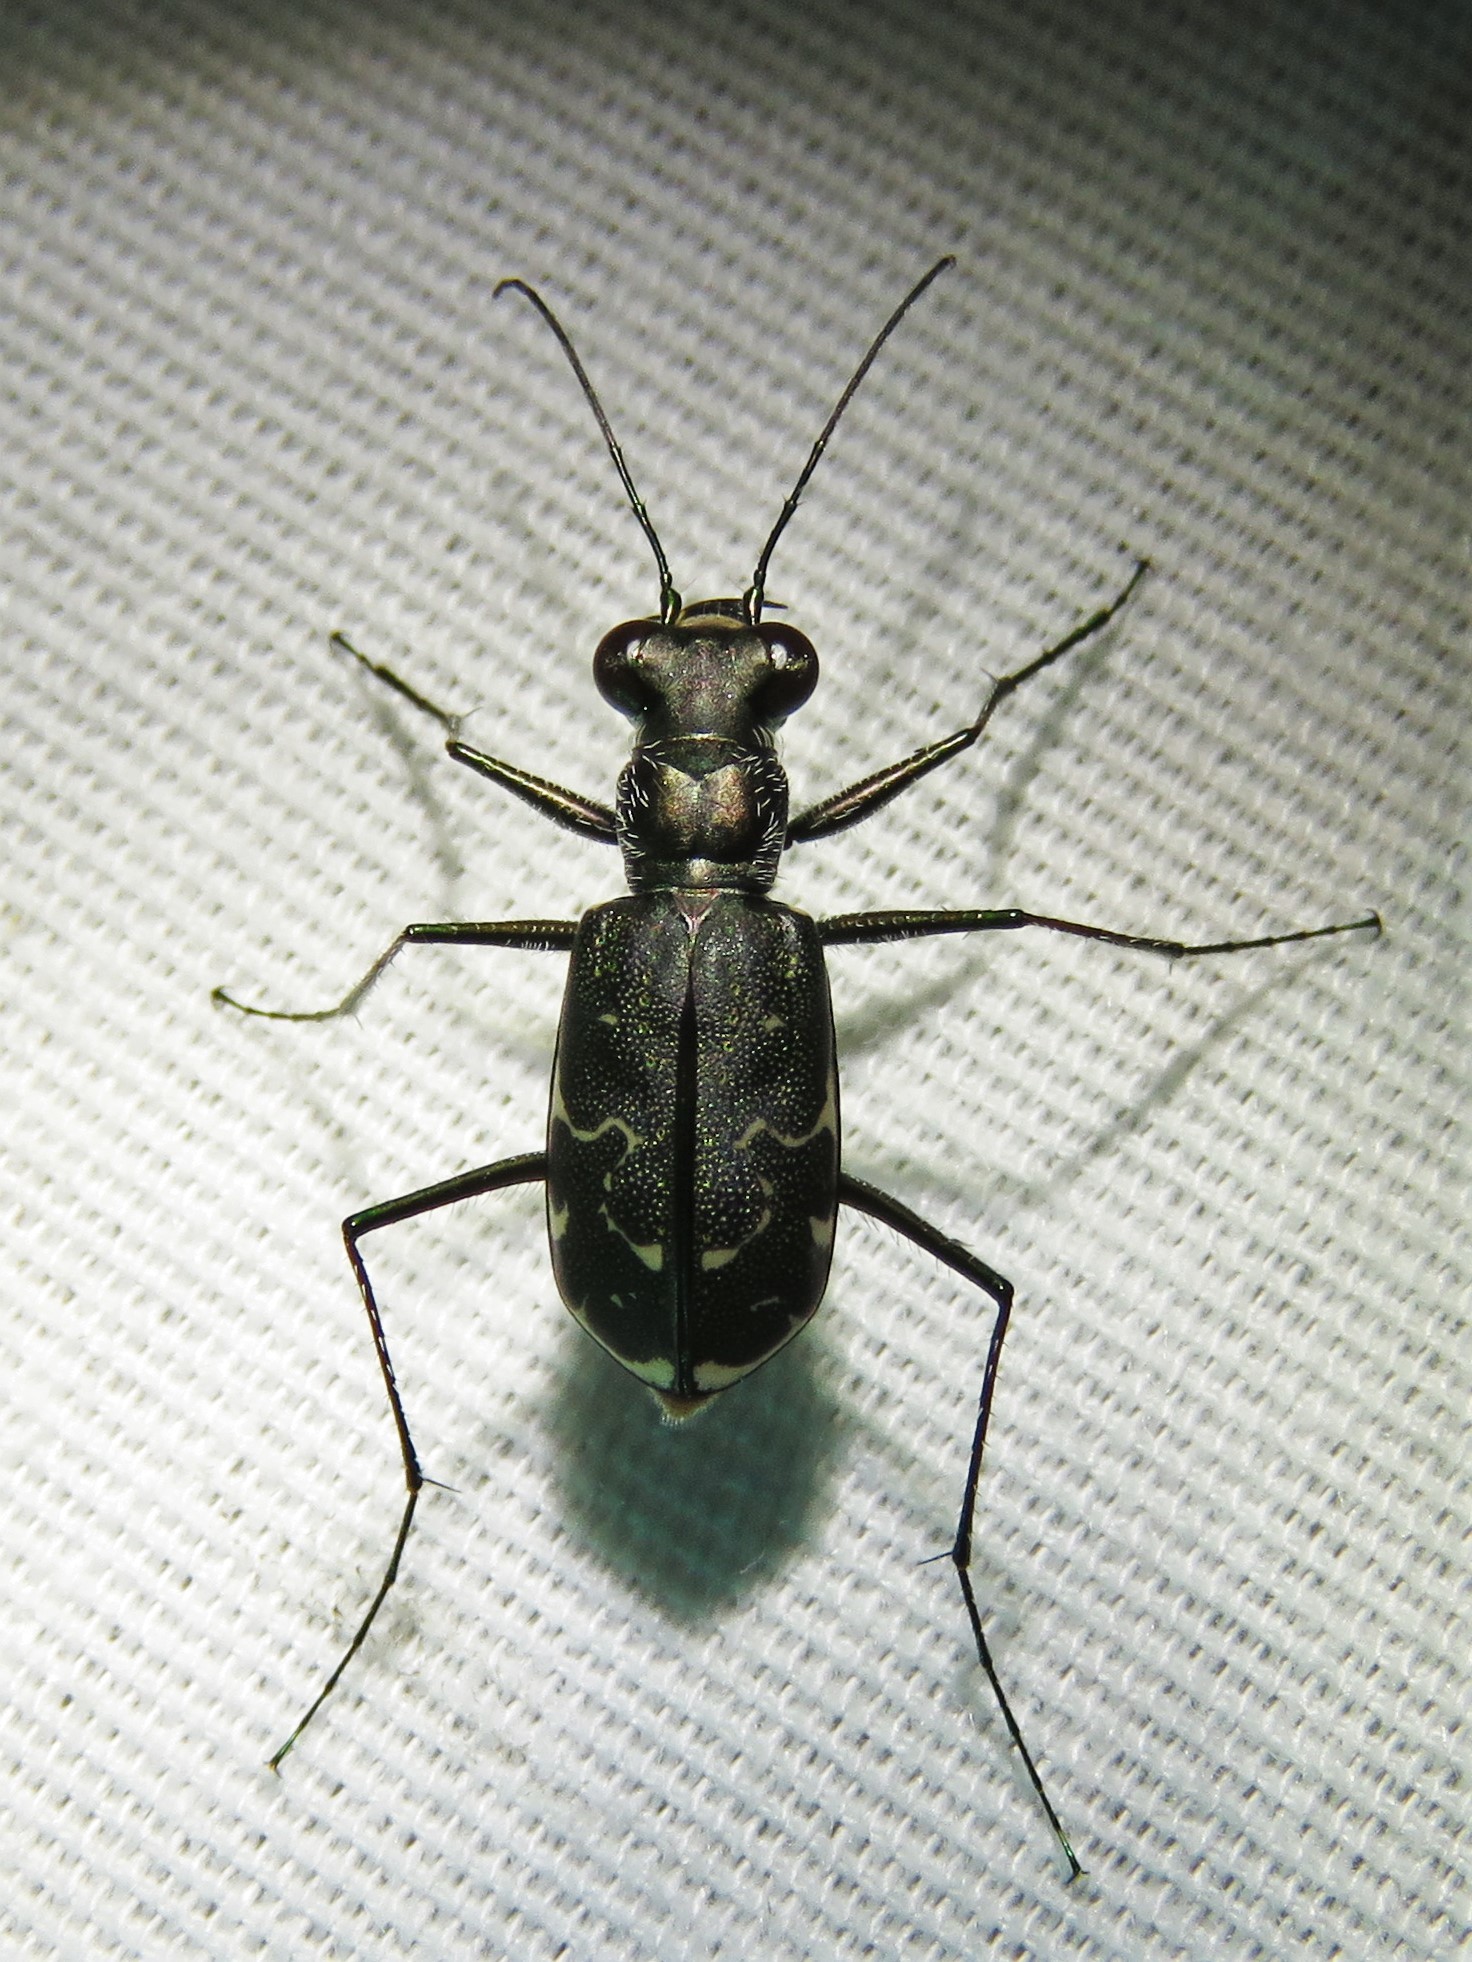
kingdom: Animalia
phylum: Arthropoda
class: Insecta
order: Coleoptera
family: Carabidae
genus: Cicindela
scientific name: Cicindela trifasciata
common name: Mudflat tiger beetle
